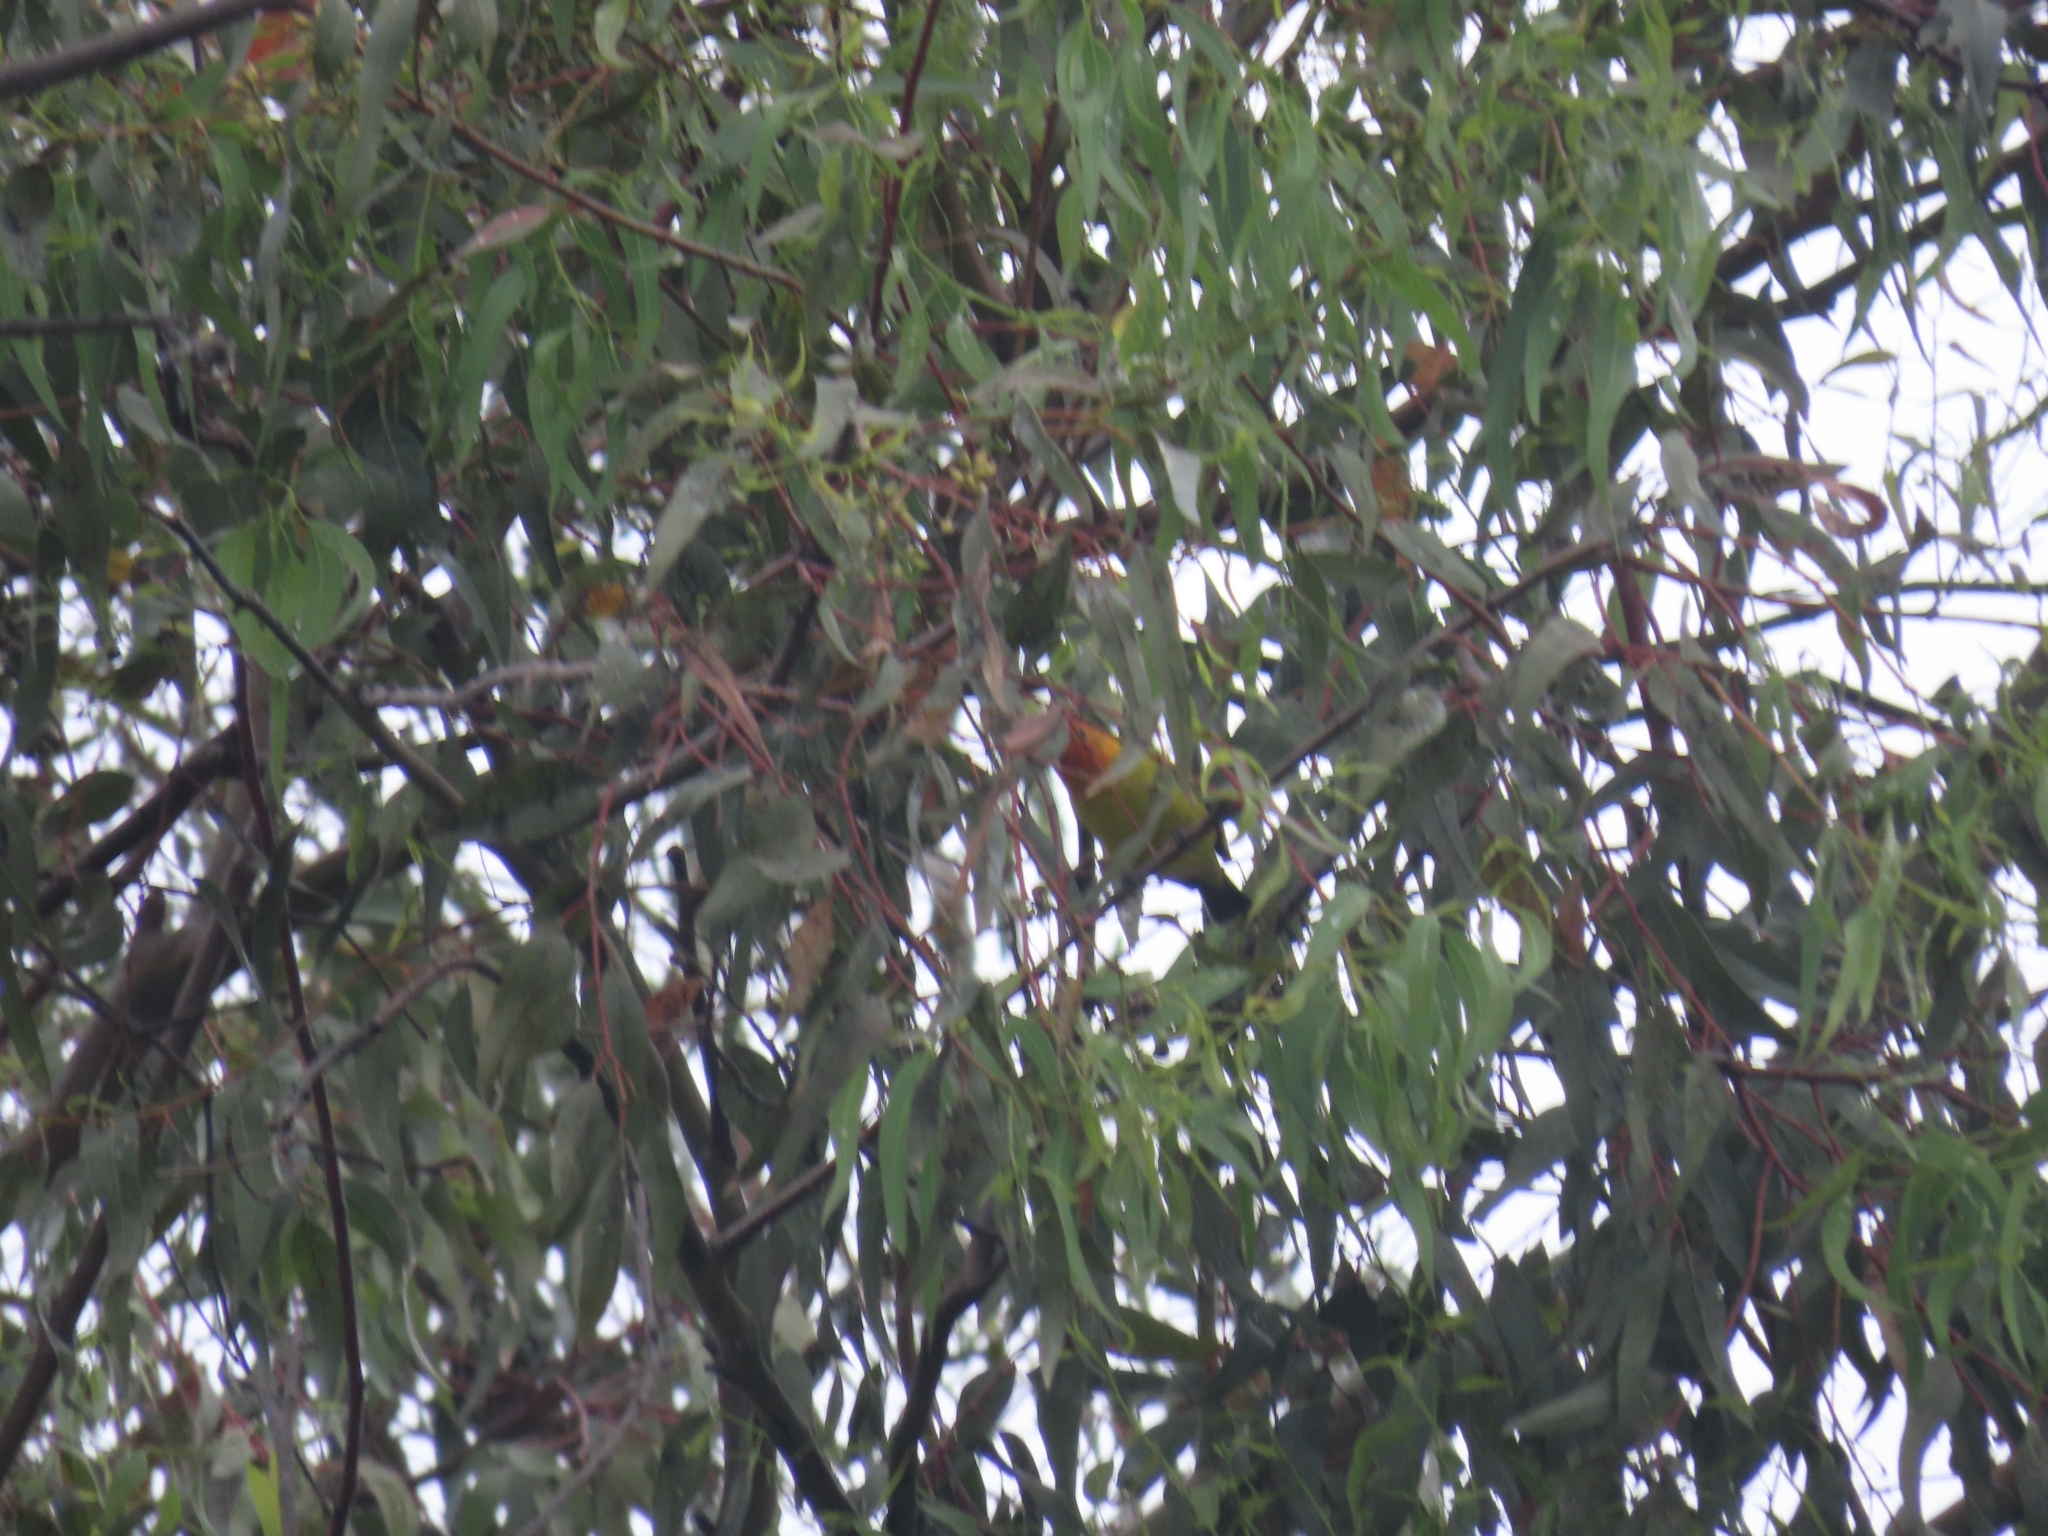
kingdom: Animalia
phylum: Chordata
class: Aves
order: Passeriformes
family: Cardinalidae
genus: Piranga
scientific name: Piranga ludoviciana
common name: Western tanager
